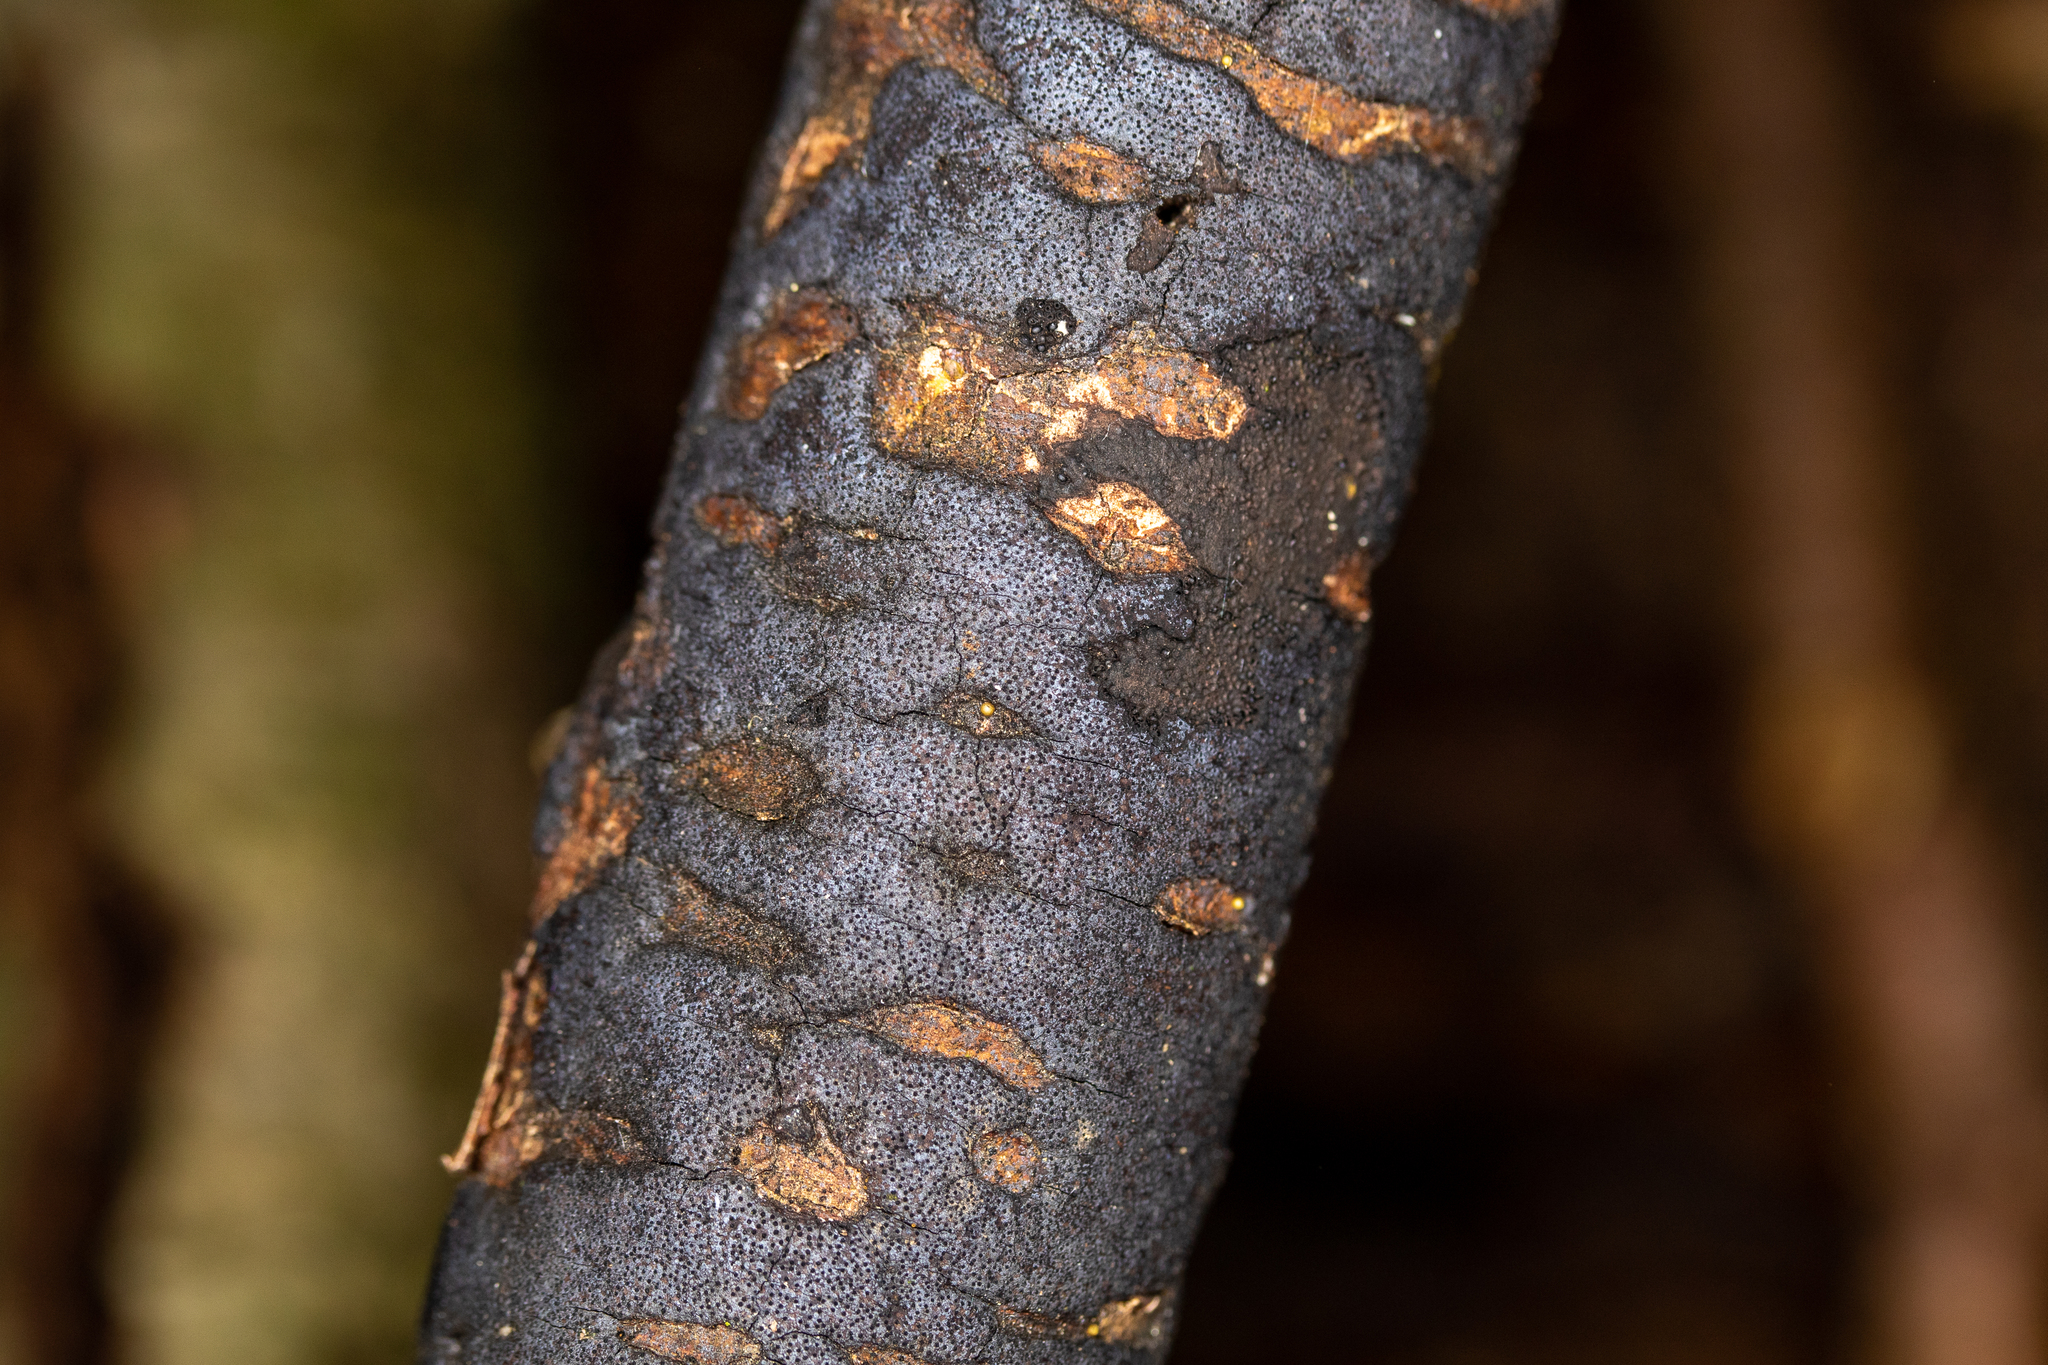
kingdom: Fungi
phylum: Ascomycota
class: Sordariomycetes
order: Xylariales
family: Diatrypaceae
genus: Diatrype
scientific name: Diatrype stigma
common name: Common tarcrust
